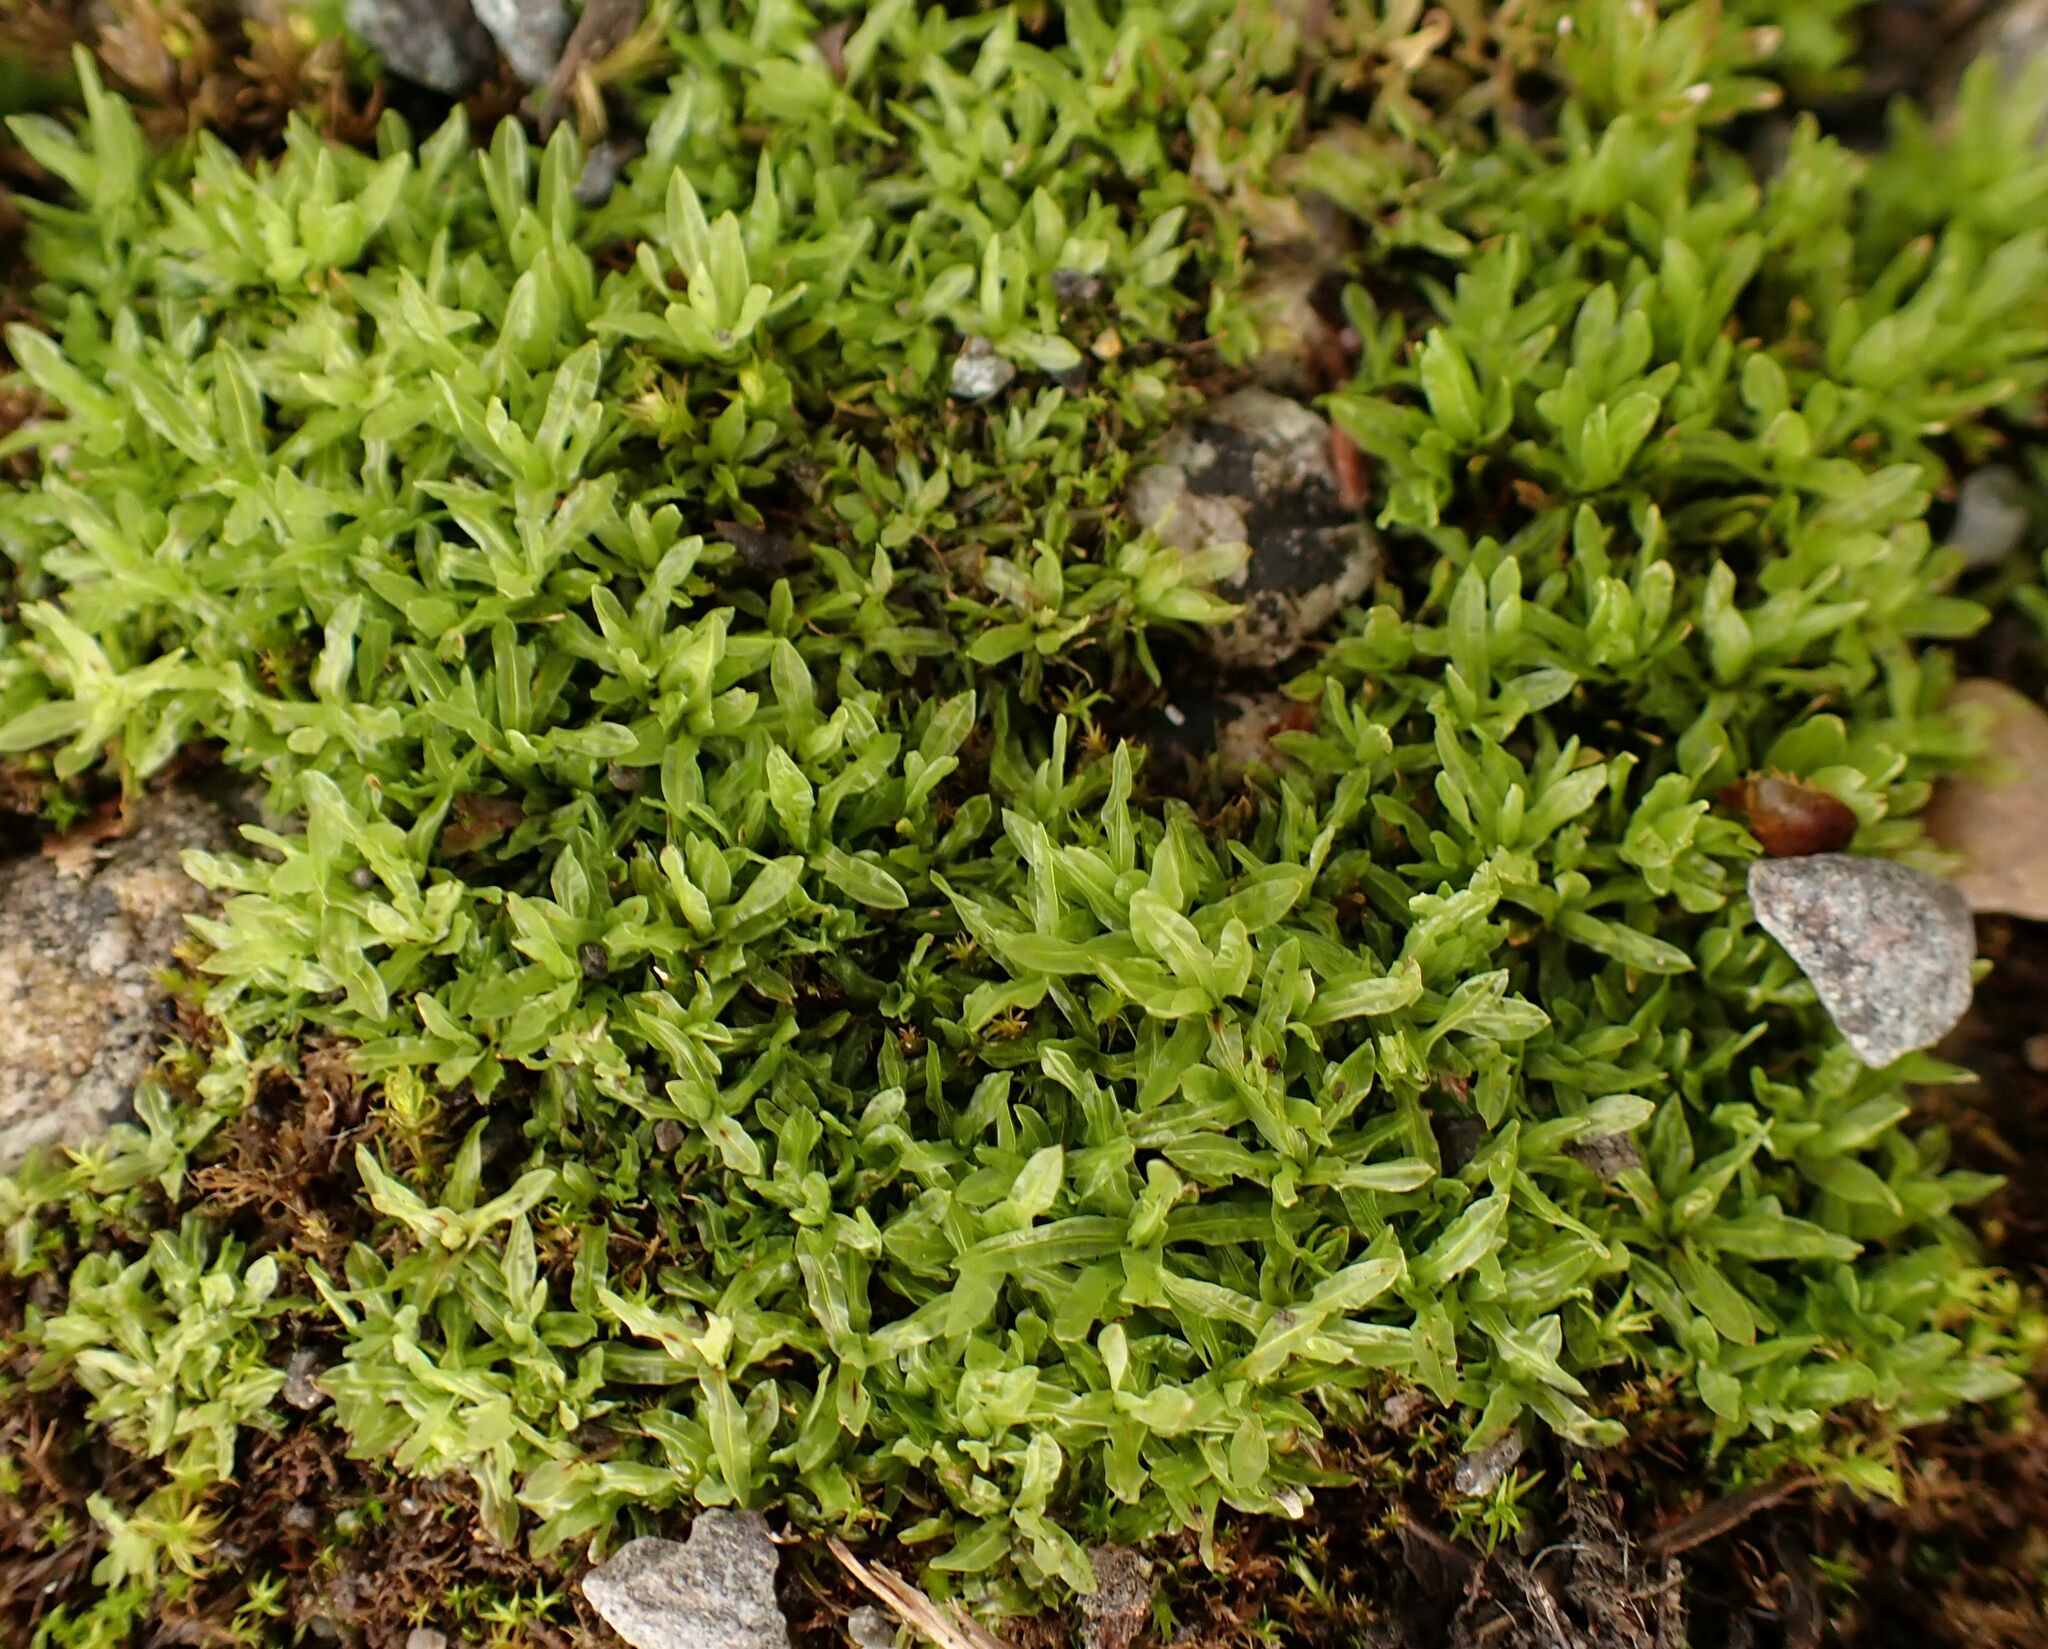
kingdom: Plantae
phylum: Bryophyta
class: Bryopsida
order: Encalyptales
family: Encalyptaceae
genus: Encalypta
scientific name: Encalypta streptocarpa
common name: Spiral extinguisher-moss
